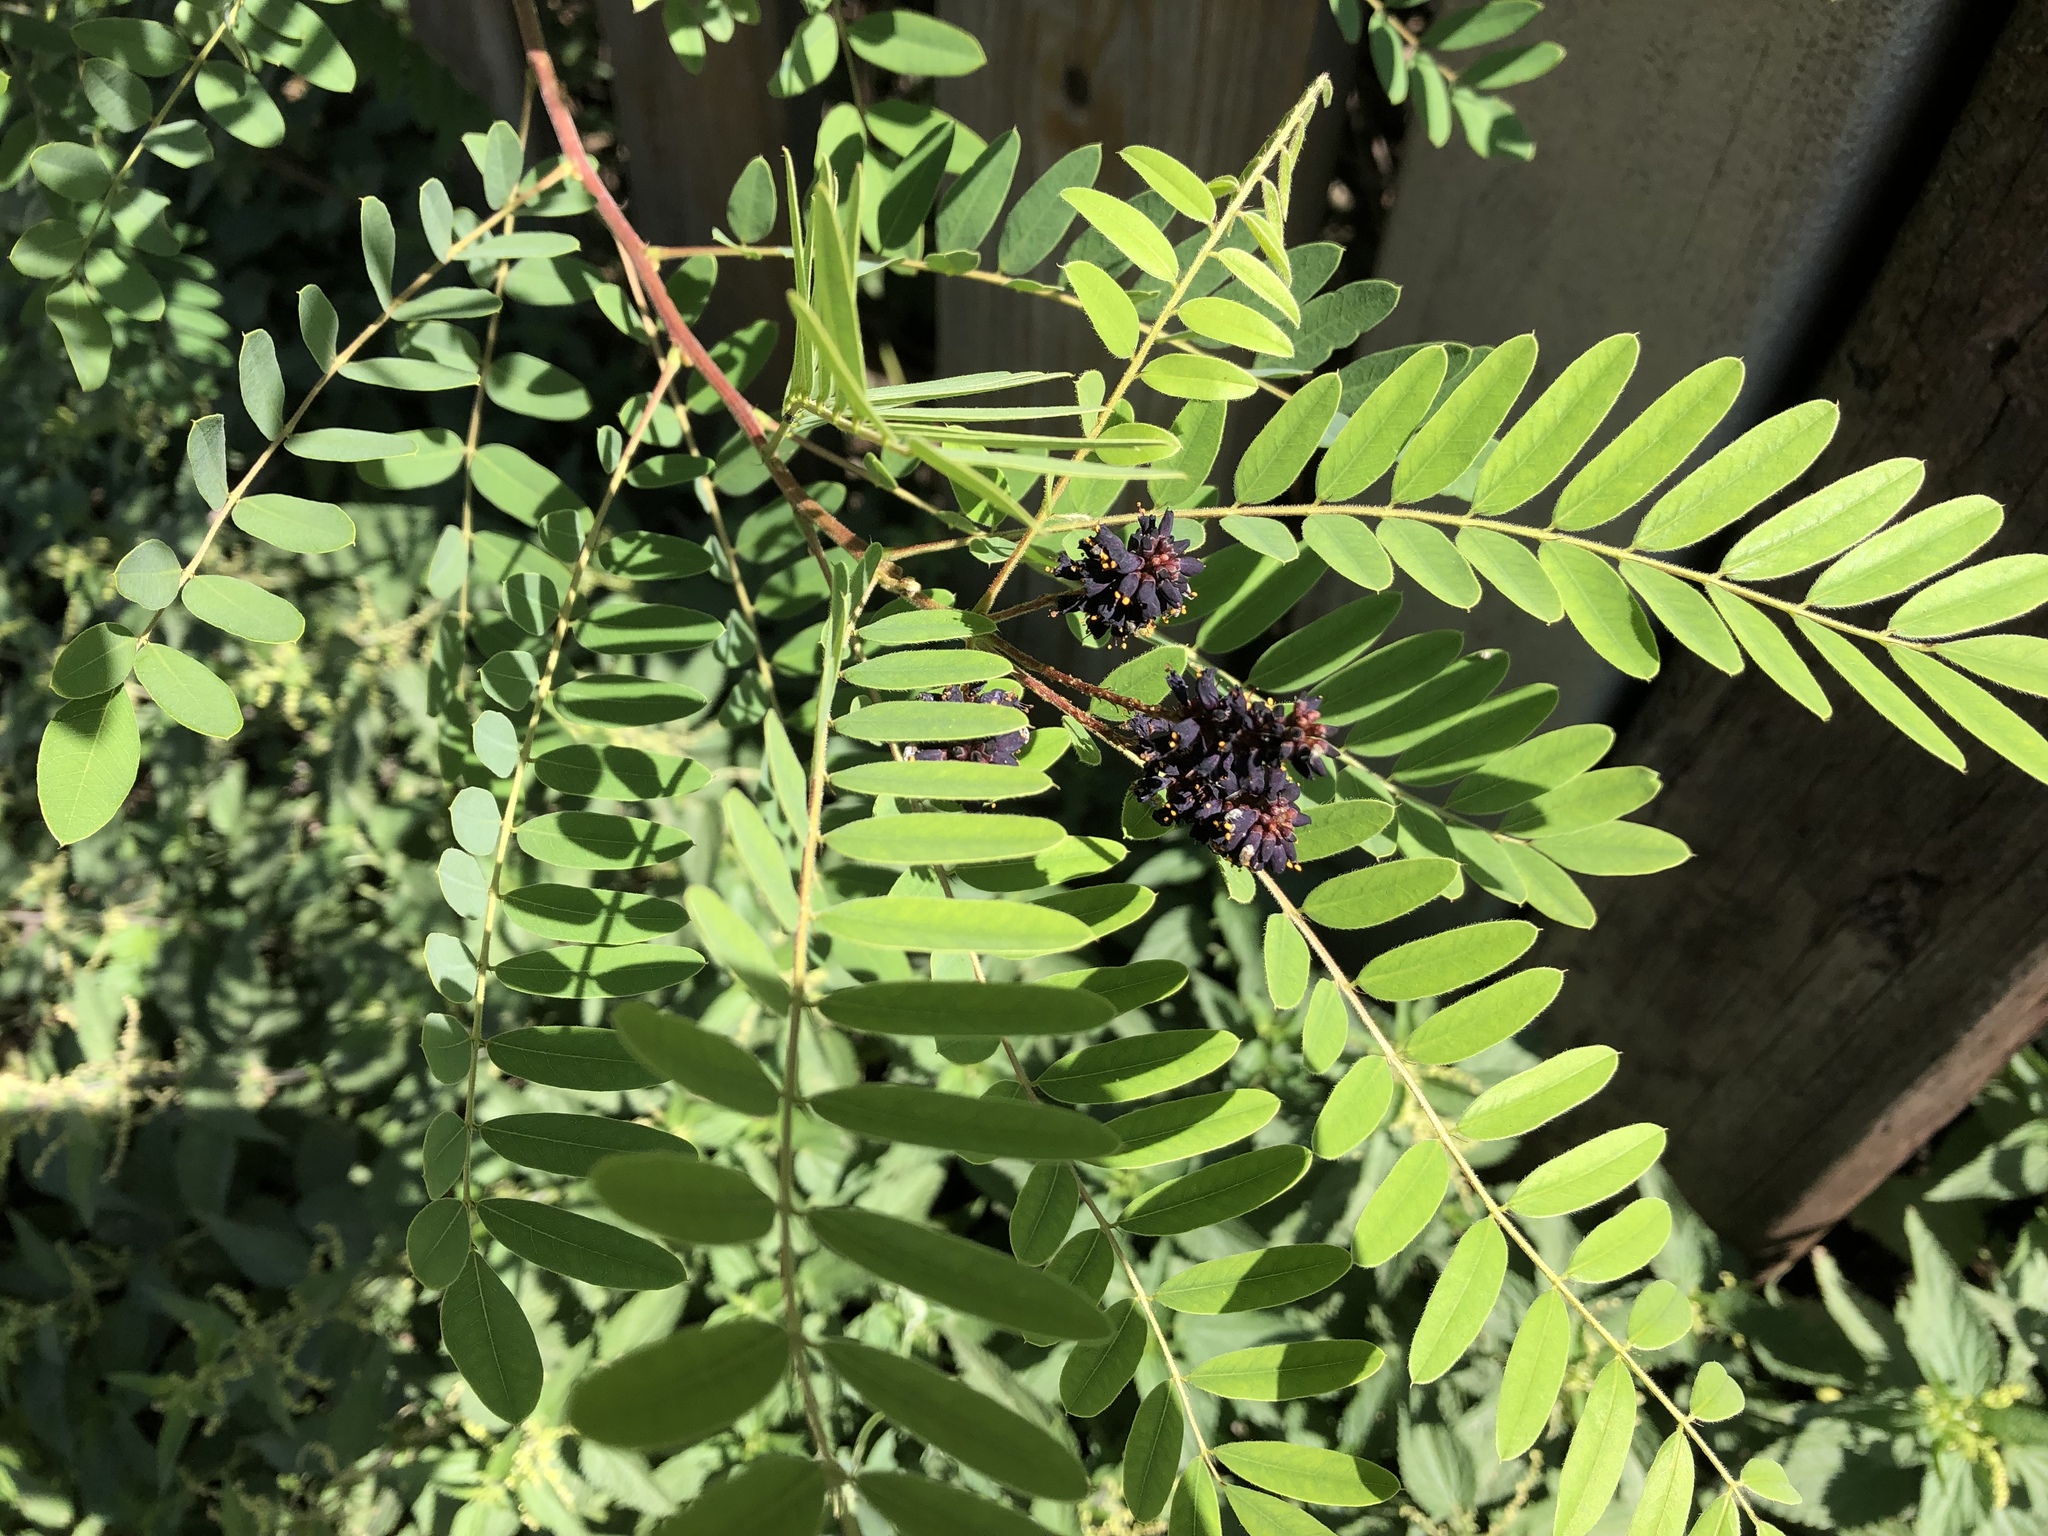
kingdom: Plantae
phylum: Tracheophyta
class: Magnoliopsida
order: Fabales
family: Fabaceae
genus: Amorpha
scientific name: Amorpha fruticosa
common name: False indigo
